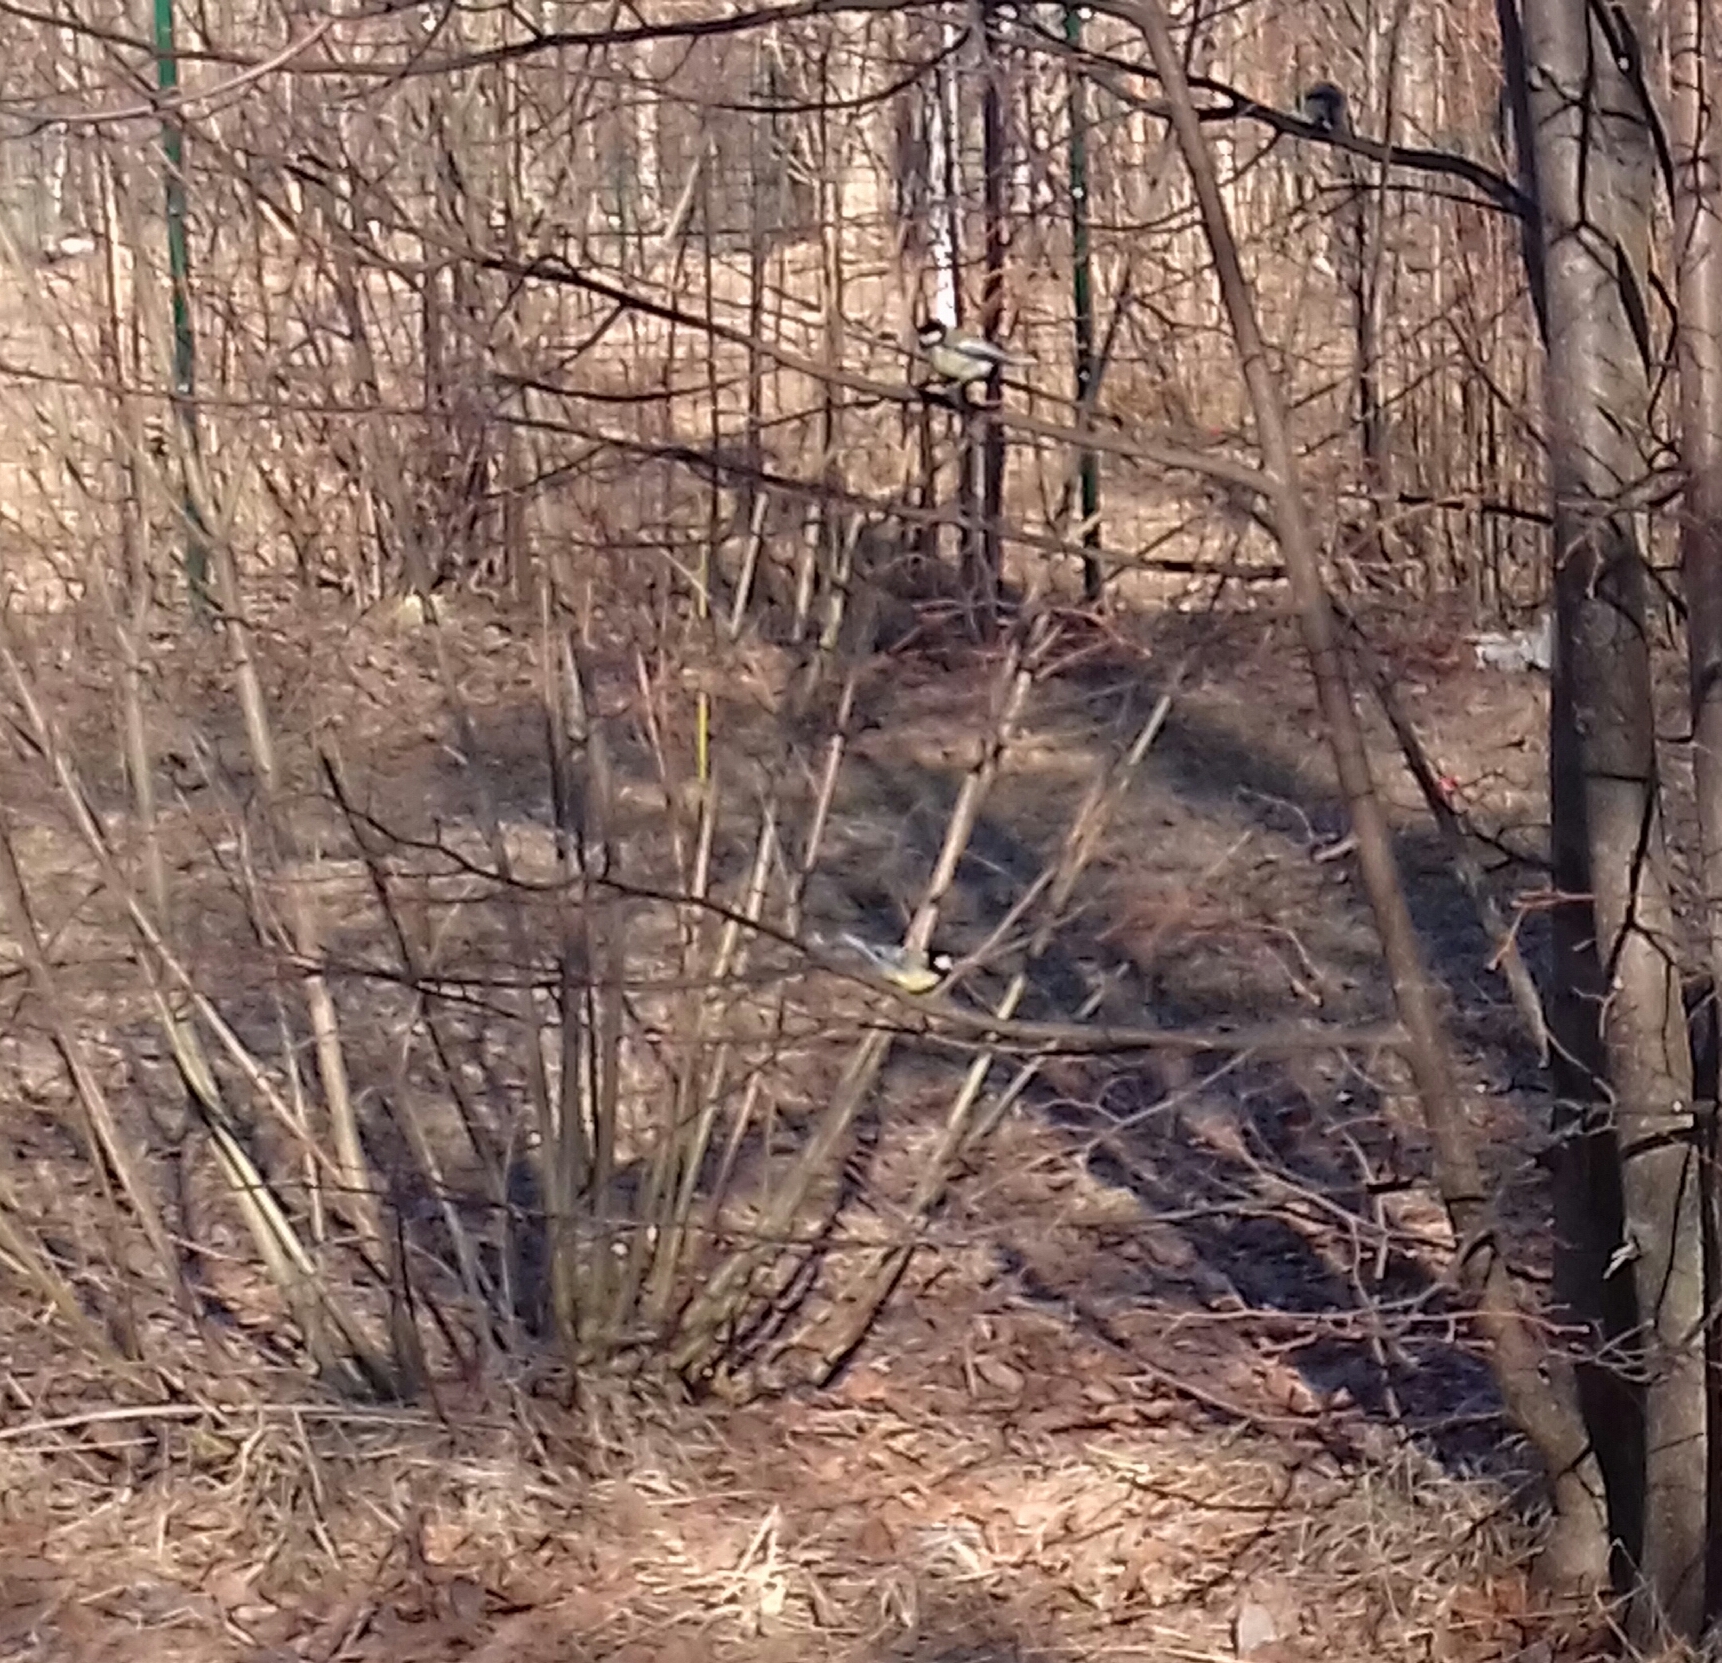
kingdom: Animalia
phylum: Chordata
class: Aves
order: Passeriformes
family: Paridae
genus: Parus
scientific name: Parus major
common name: Great tit
